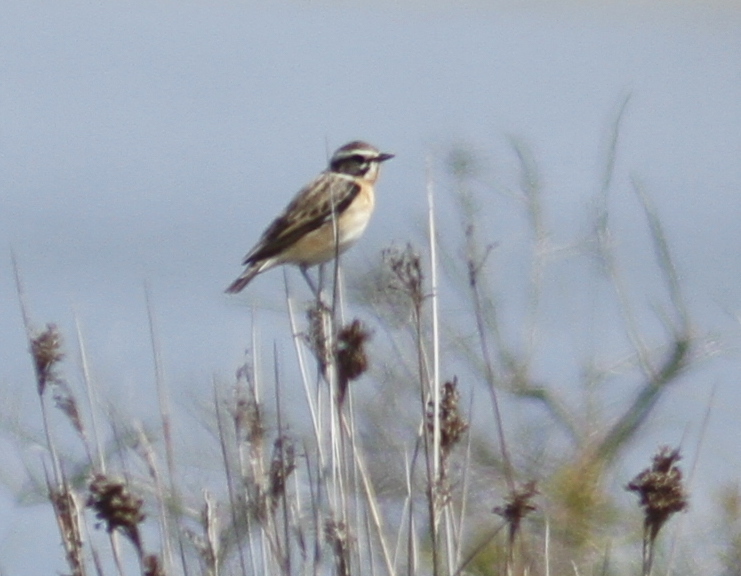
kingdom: Animalia
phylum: Chordata
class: Aves
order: Passeriformes
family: Muscicapidae
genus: Saxicola
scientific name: Saxicola rubetra
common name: Whinchat
